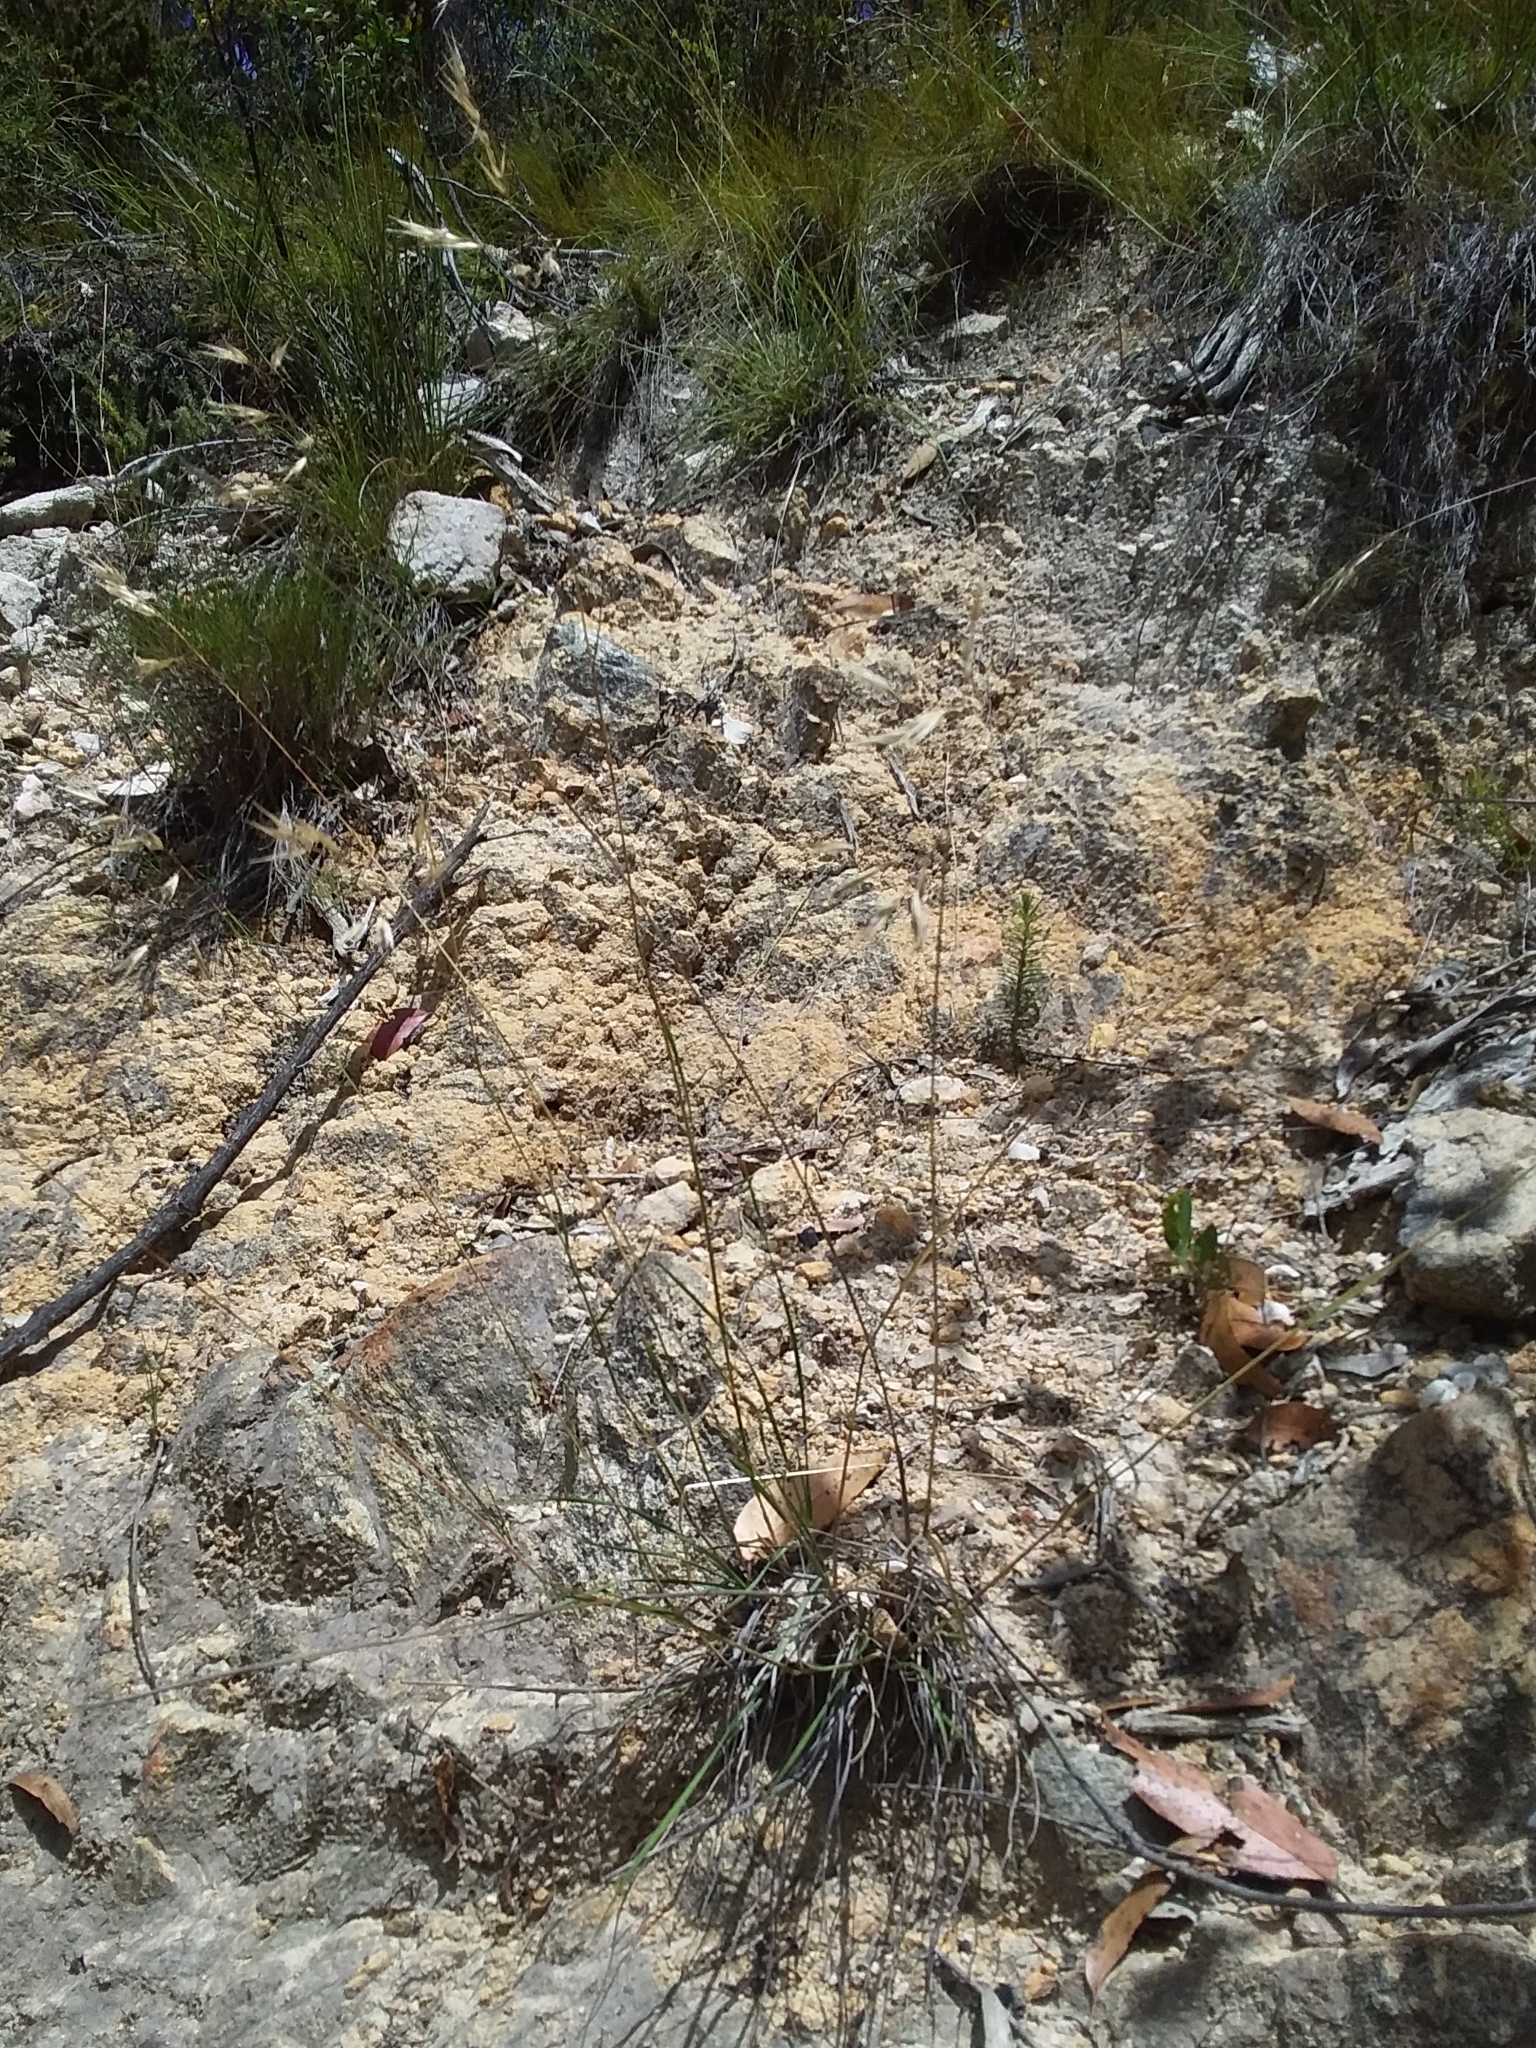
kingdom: Plantae
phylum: Tracheophyta
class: Liliopsida
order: Poales
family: Poaceae
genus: Rytidosperma
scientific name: Rytidosperma clelandii
